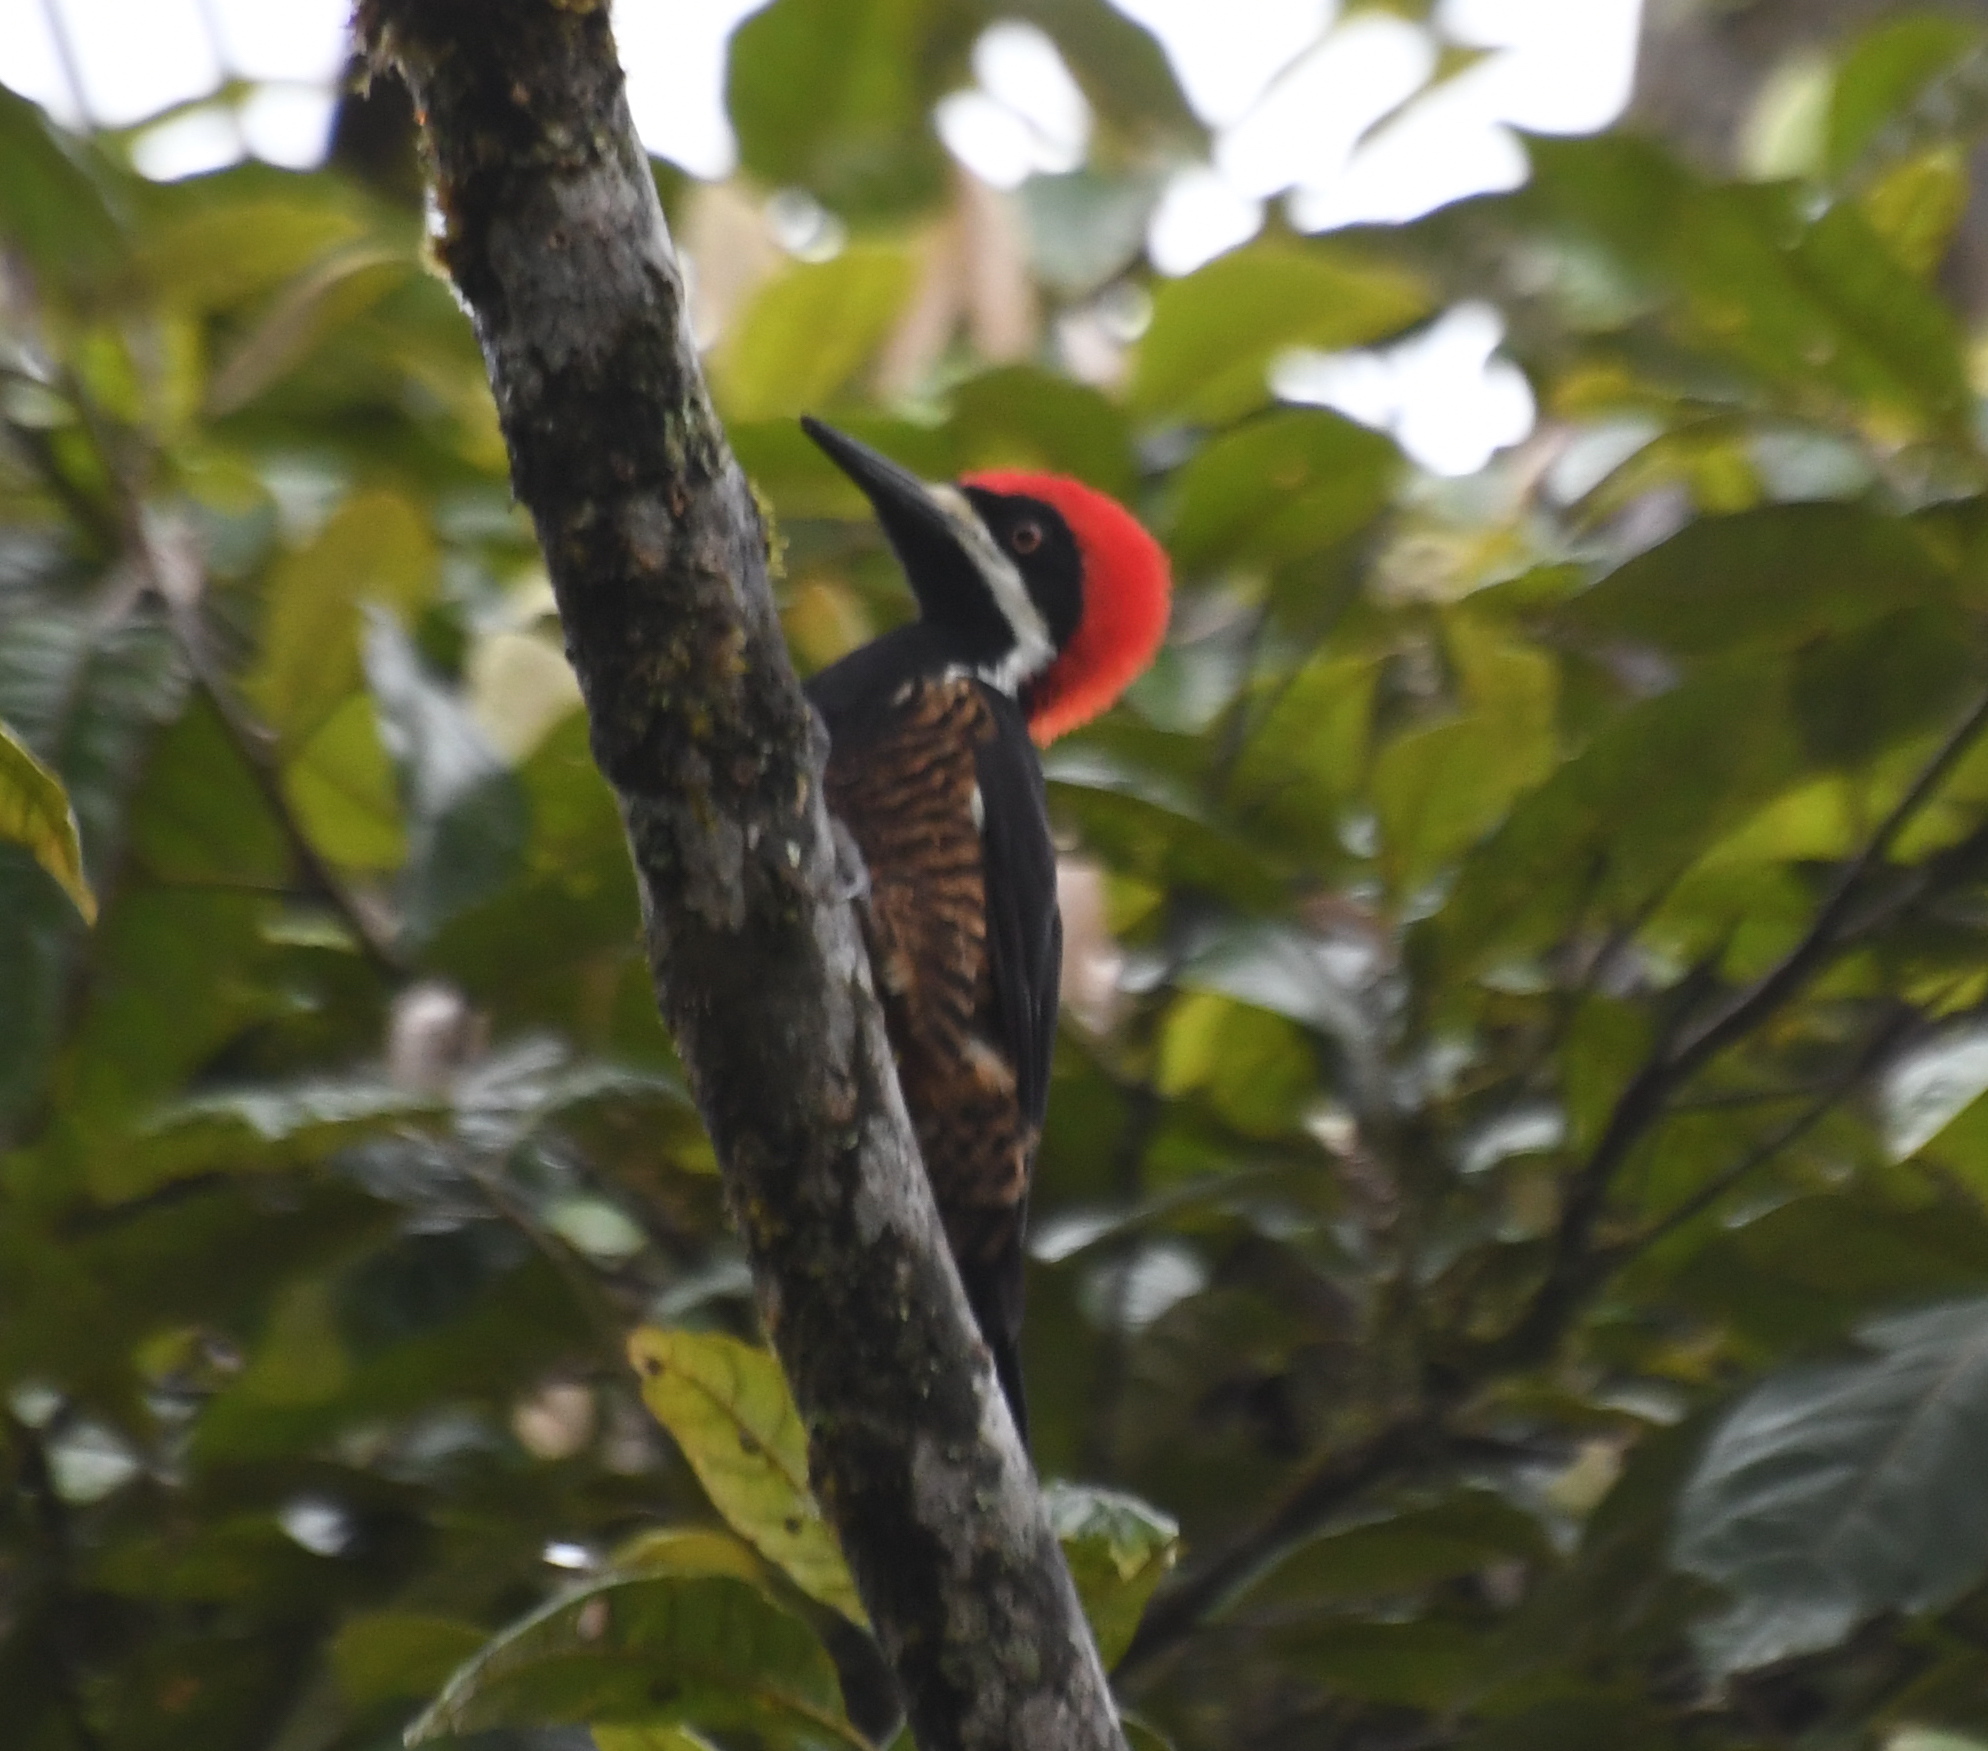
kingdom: Animalia
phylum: Chordata
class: Aves
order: Piciformes
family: Picidae
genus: Campephilus
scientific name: Campephilus pollens
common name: Powerful woodpecker
